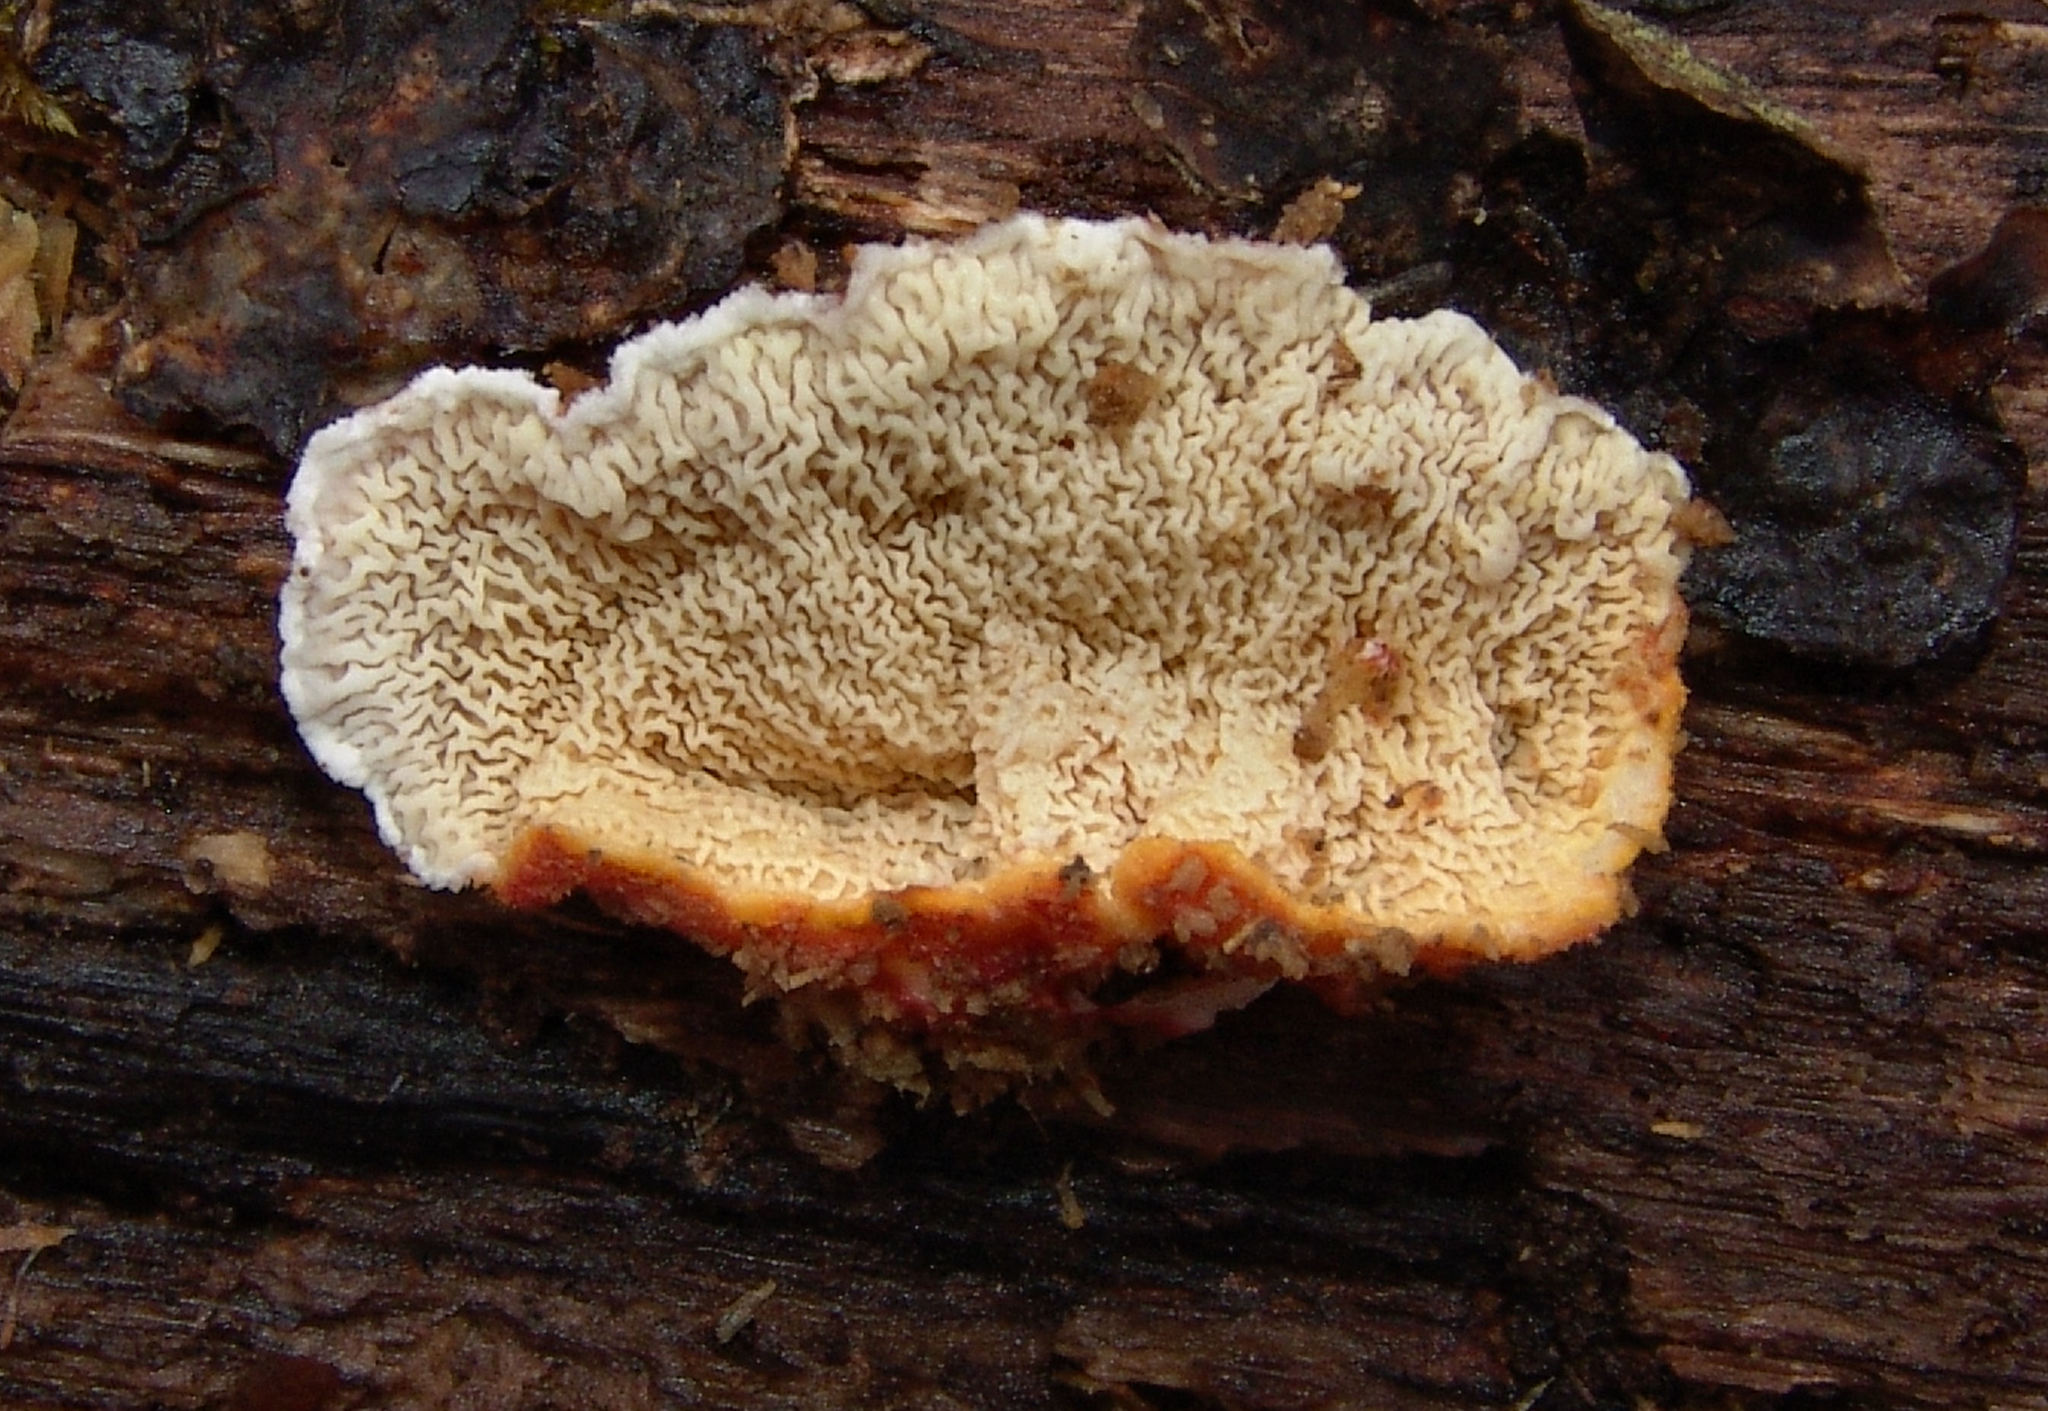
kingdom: Fungi
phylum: Basidiomycota
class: Agaricomycetes
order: Polyporales
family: Irpicaceae
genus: Byssomerulius
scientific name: Byssomerulius incarnatus
